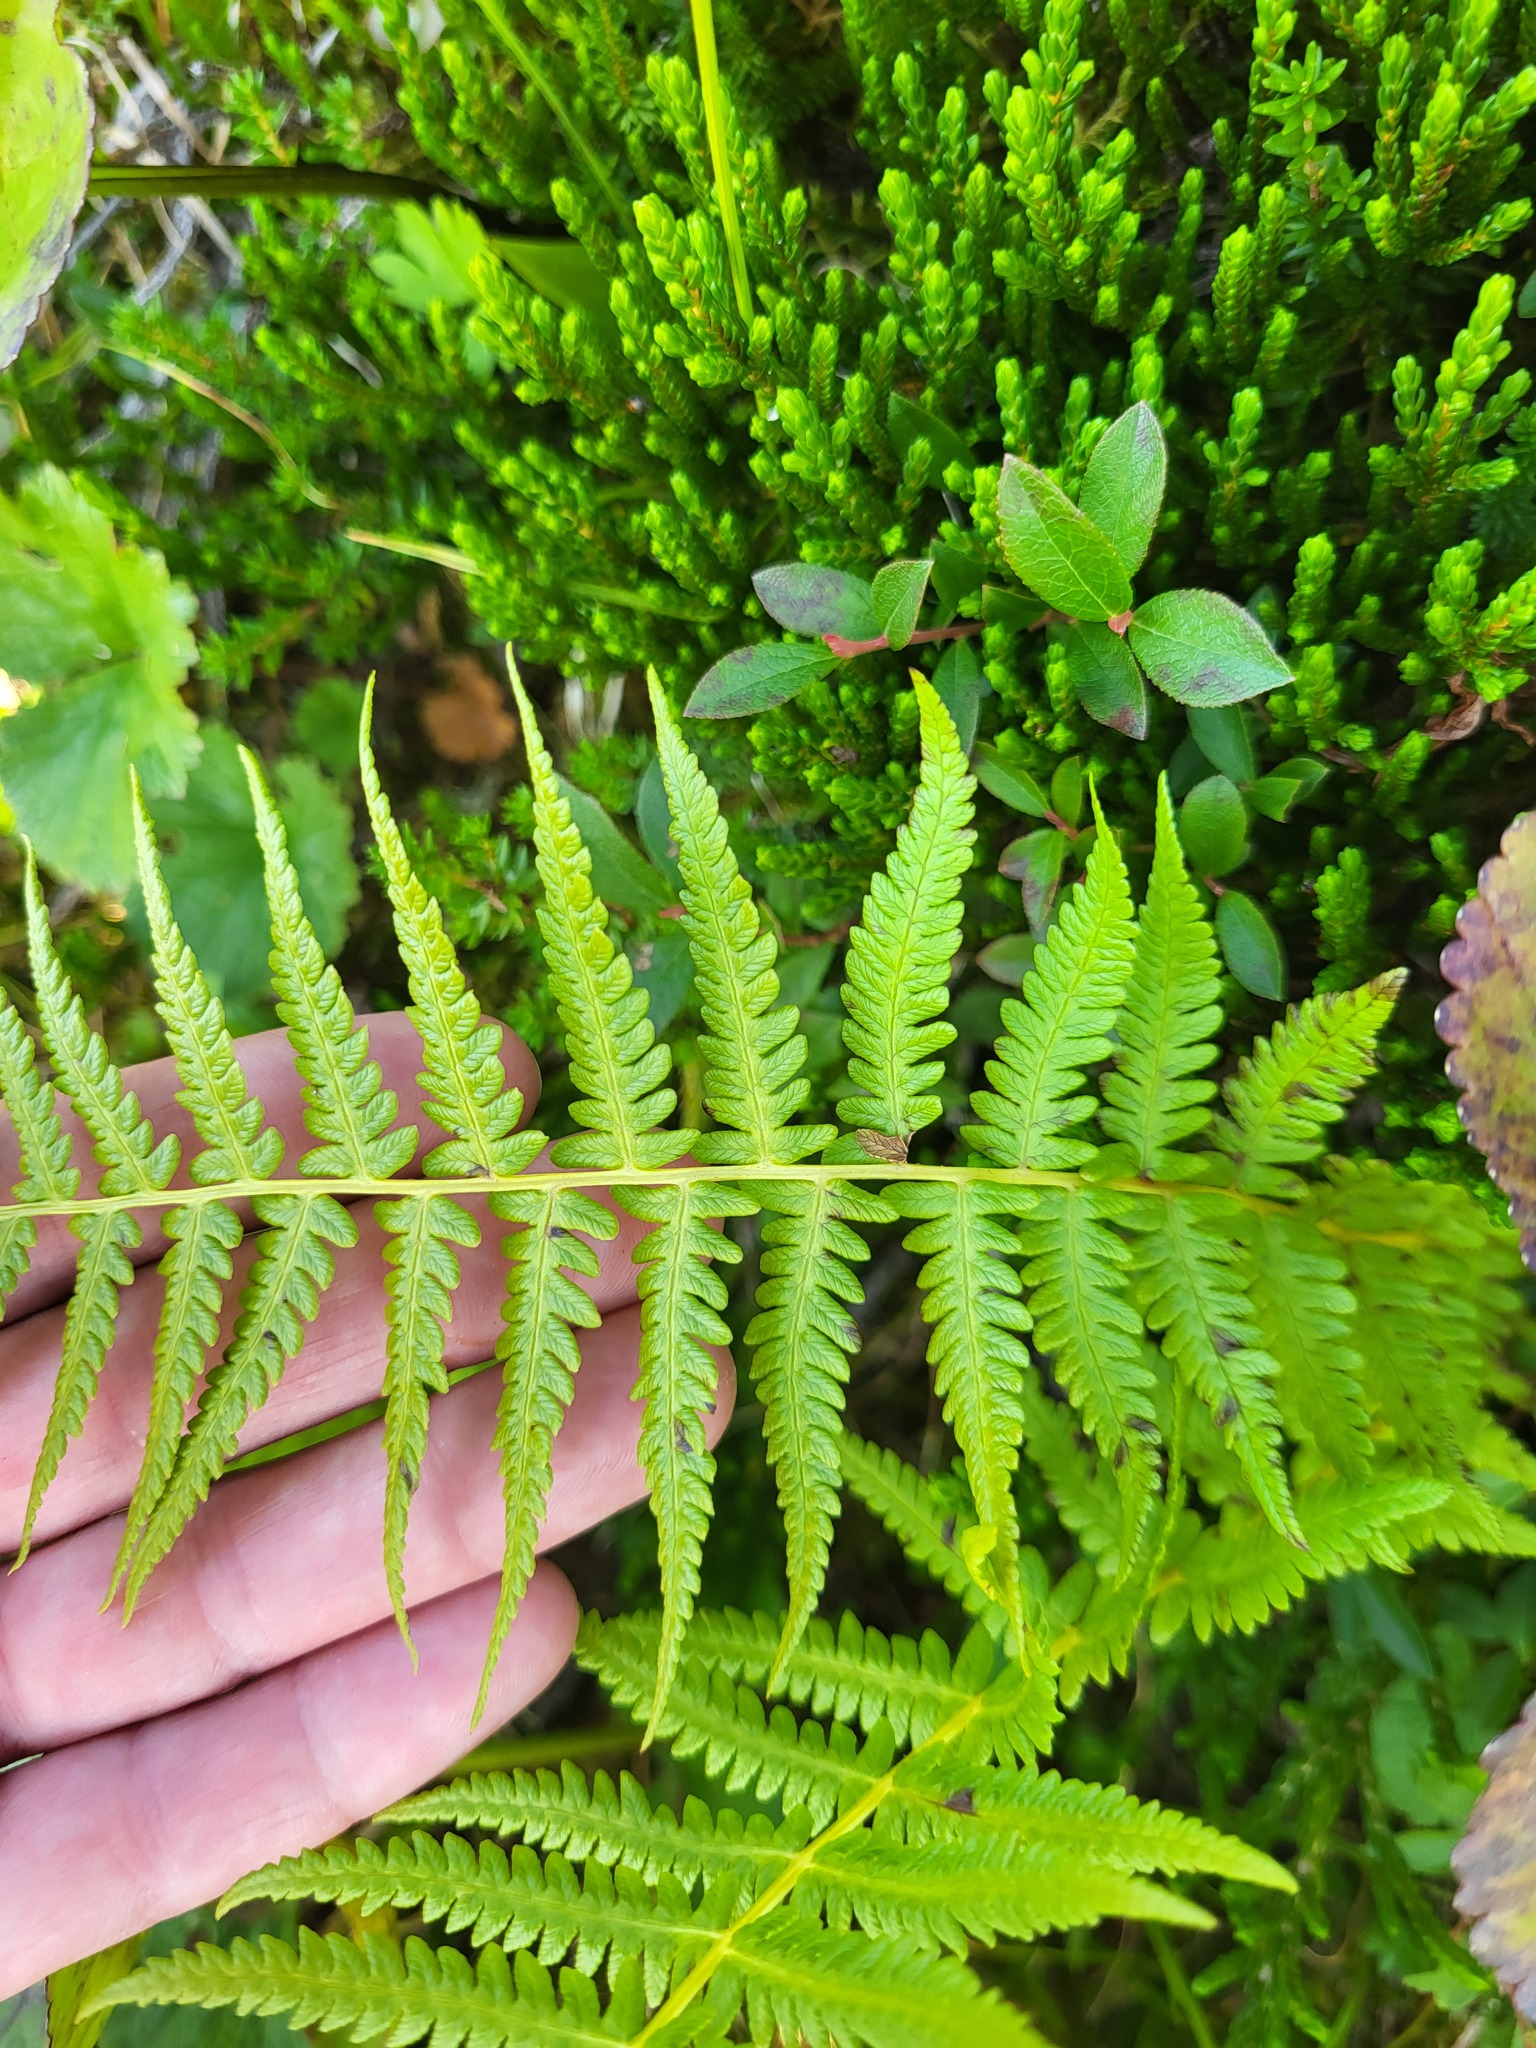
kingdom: Plantae
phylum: Tracheophyta
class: Polypodiopsida
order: Polypodiales
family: Thelypteridaceae
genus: Oreopteris
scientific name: Oreopteris quelpartensis
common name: Mountain fern
